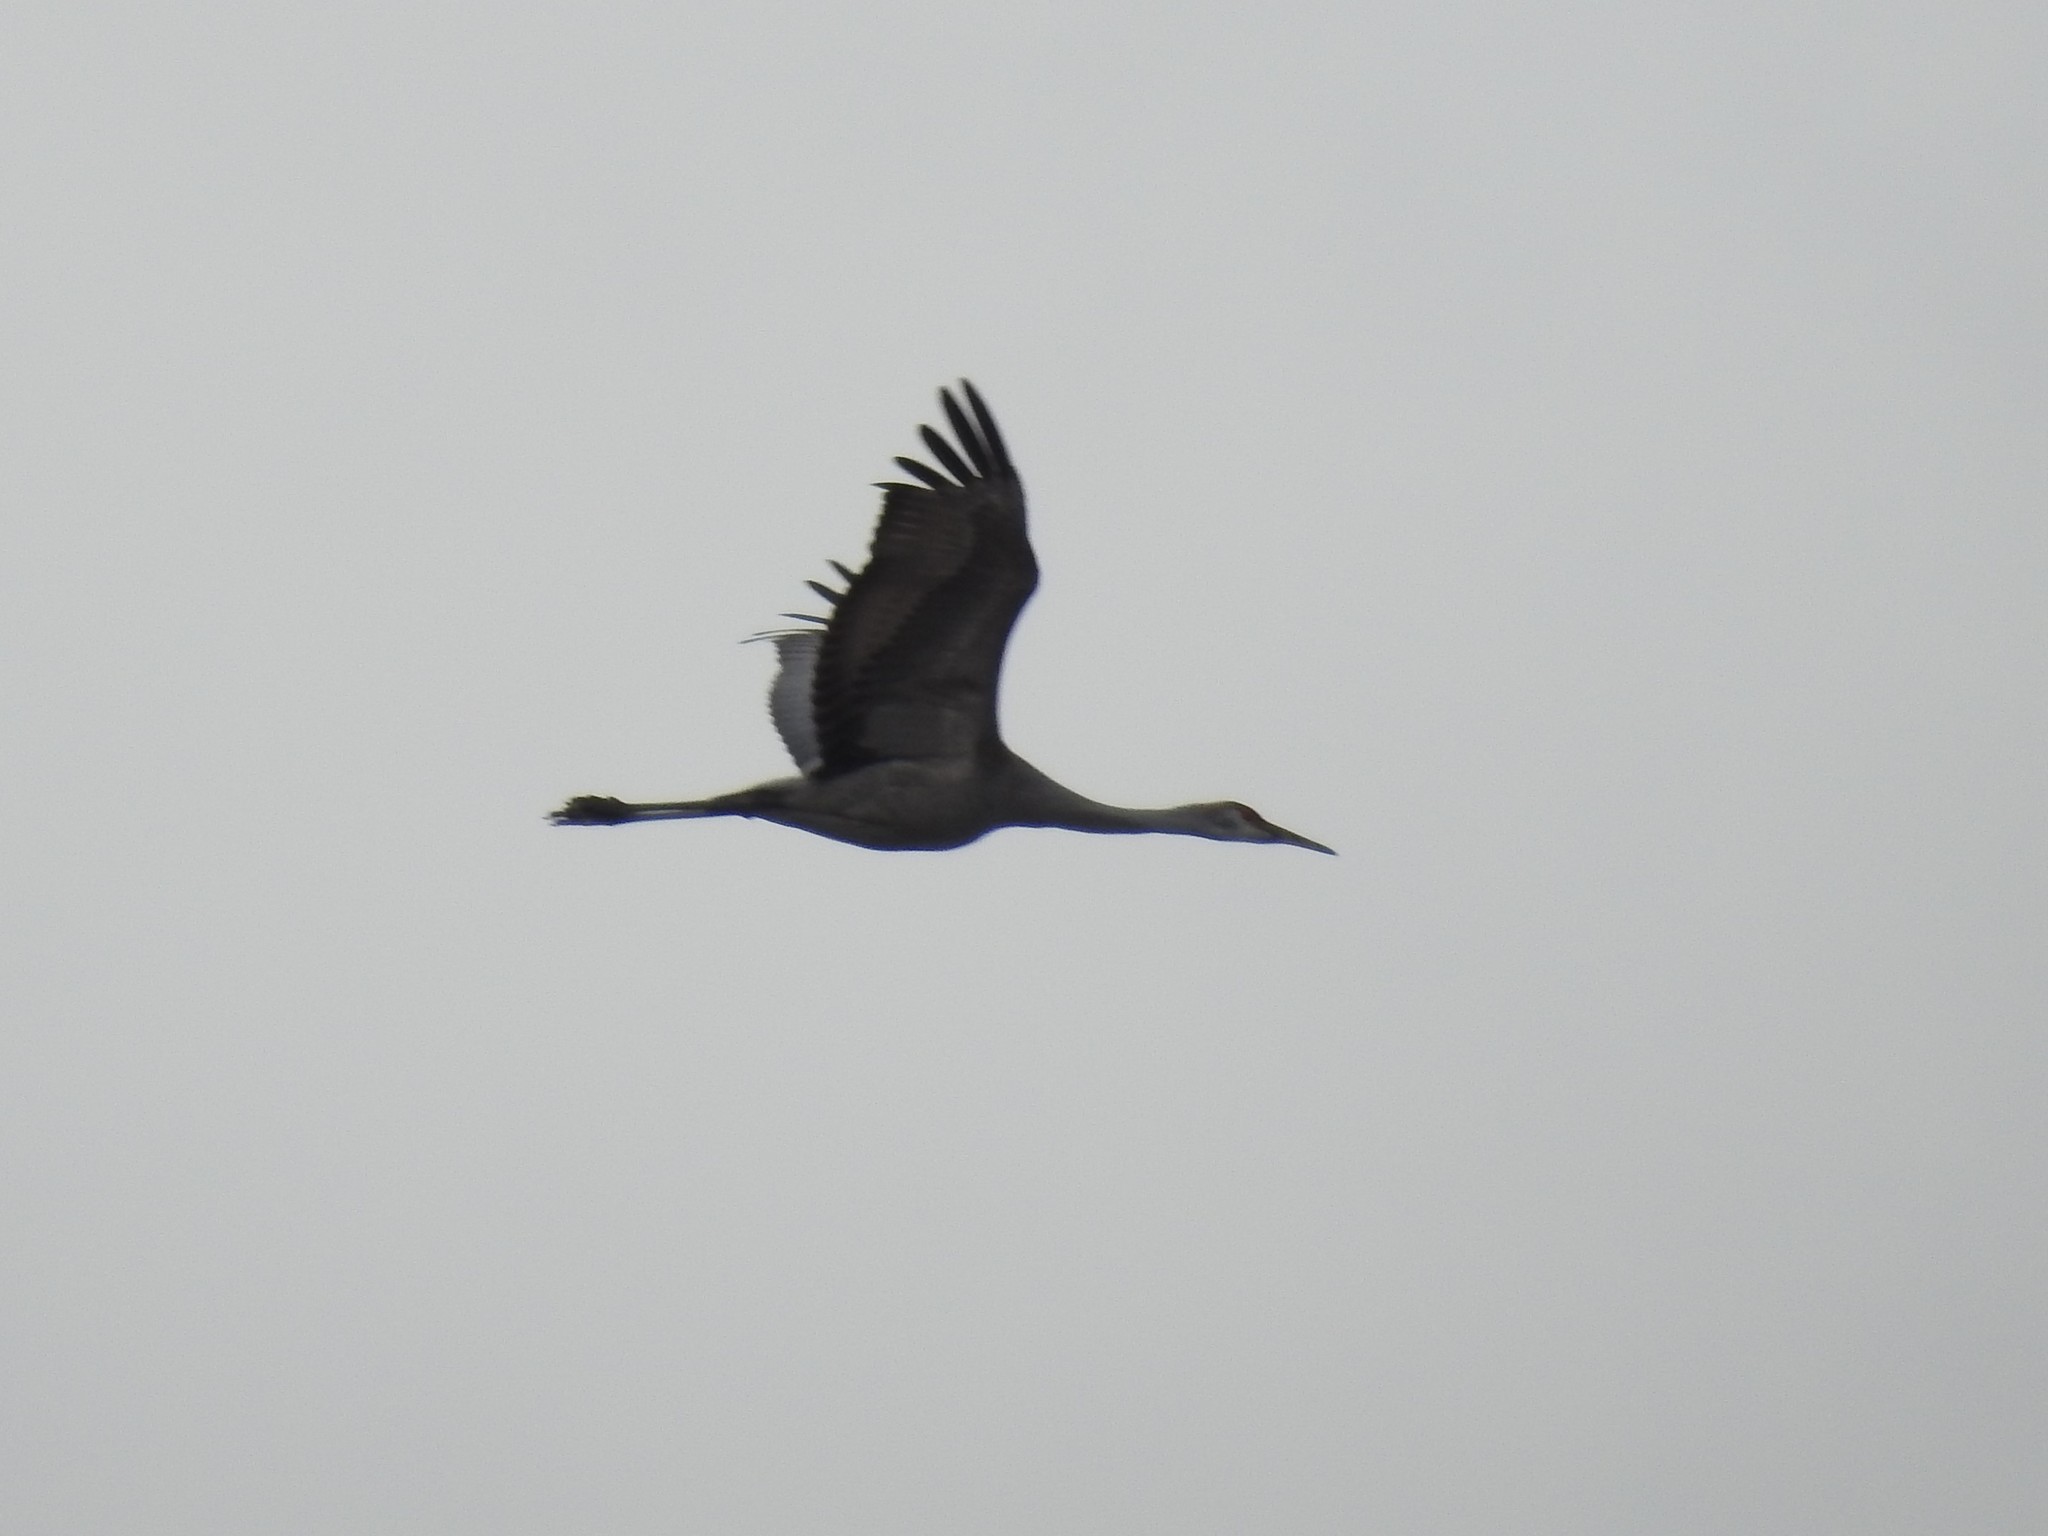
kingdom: Animalia
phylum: Chordata
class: Aves
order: Gruiformes
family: Gruidae
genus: Grus
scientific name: Grus canadensis
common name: Sandhill crane
